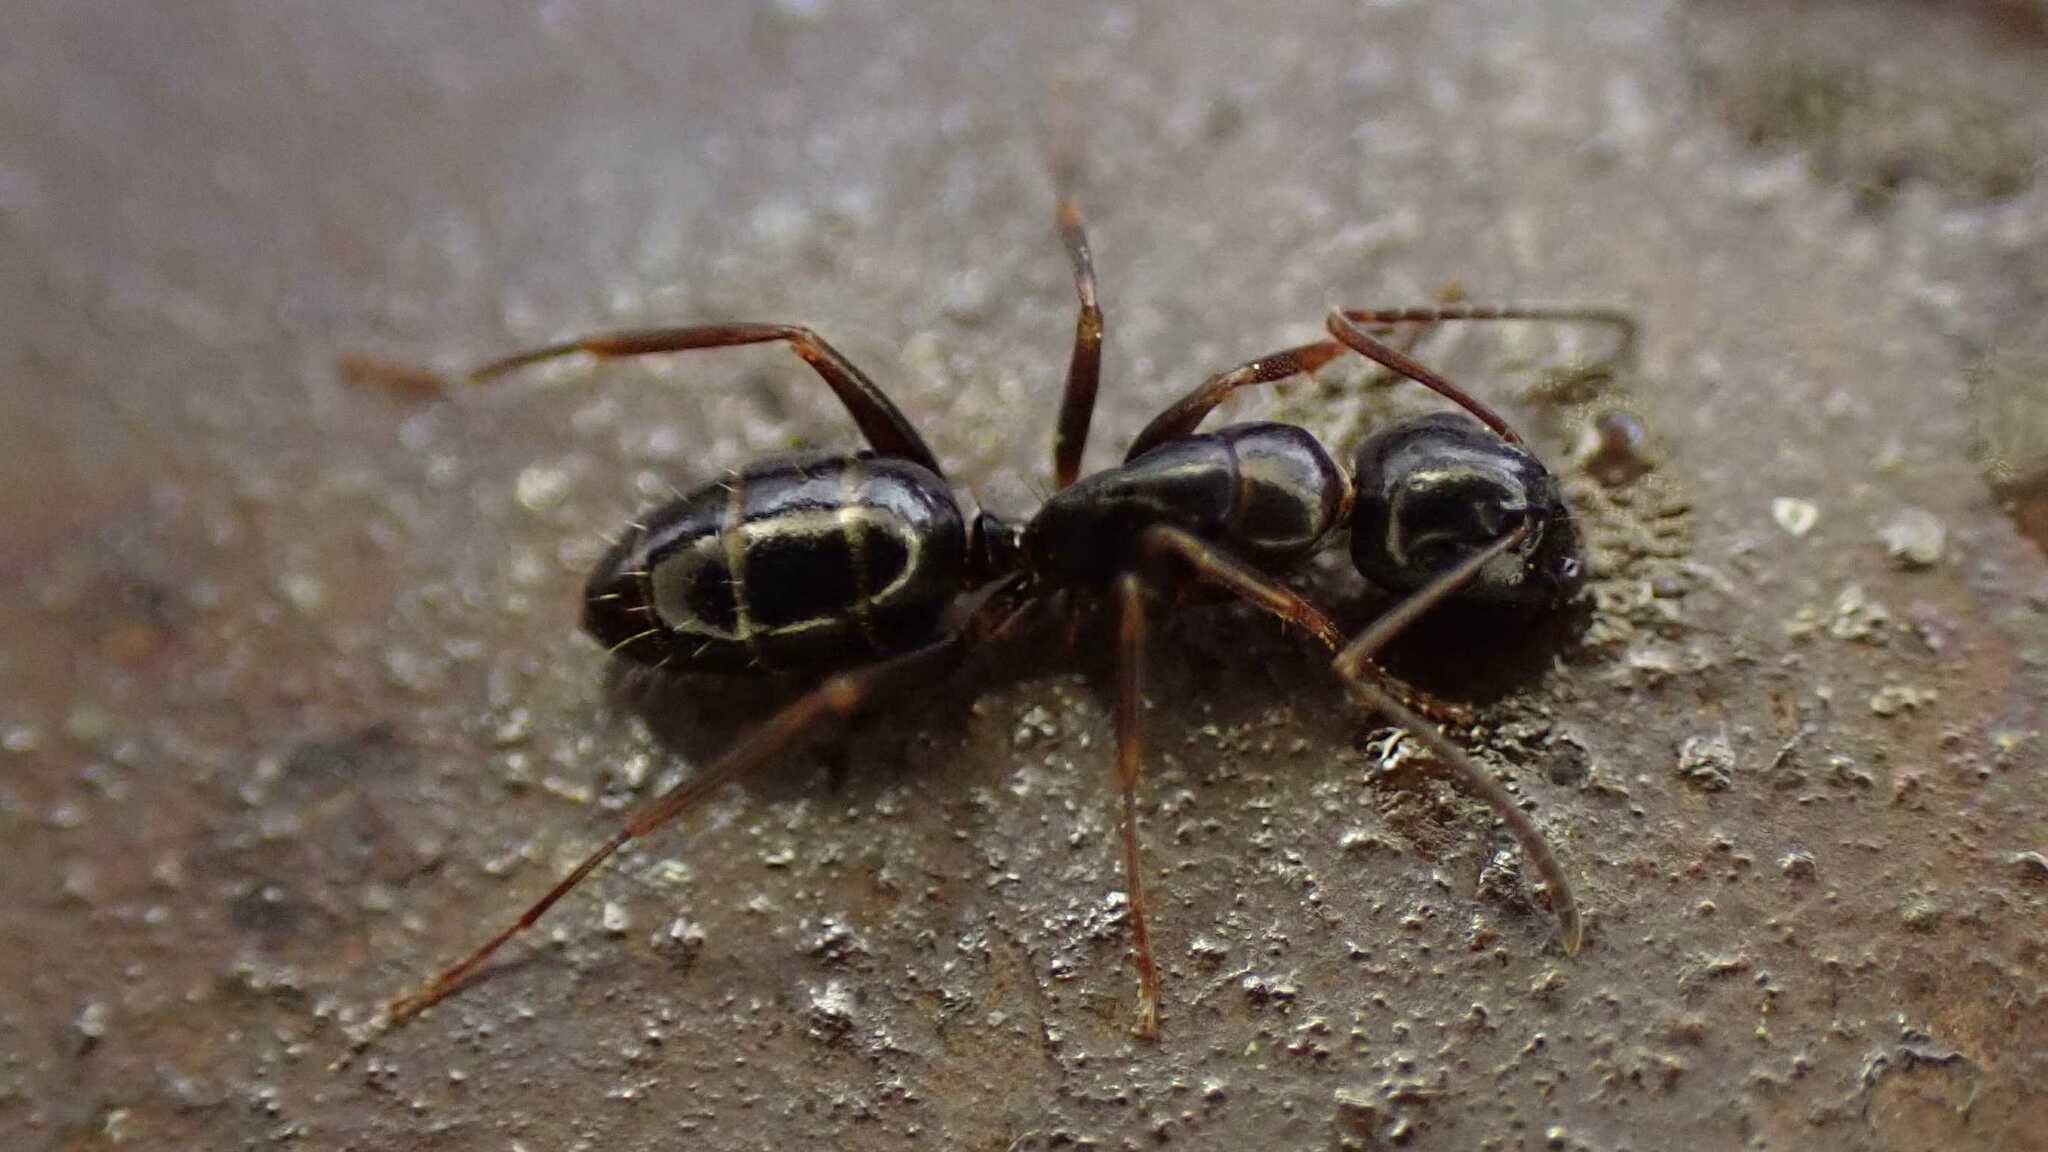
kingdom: Animalia
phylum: Arthropoda
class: Insecta
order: Hymenoptera
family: Formicidae
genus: Camponotus
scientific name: Camponotus fallax
